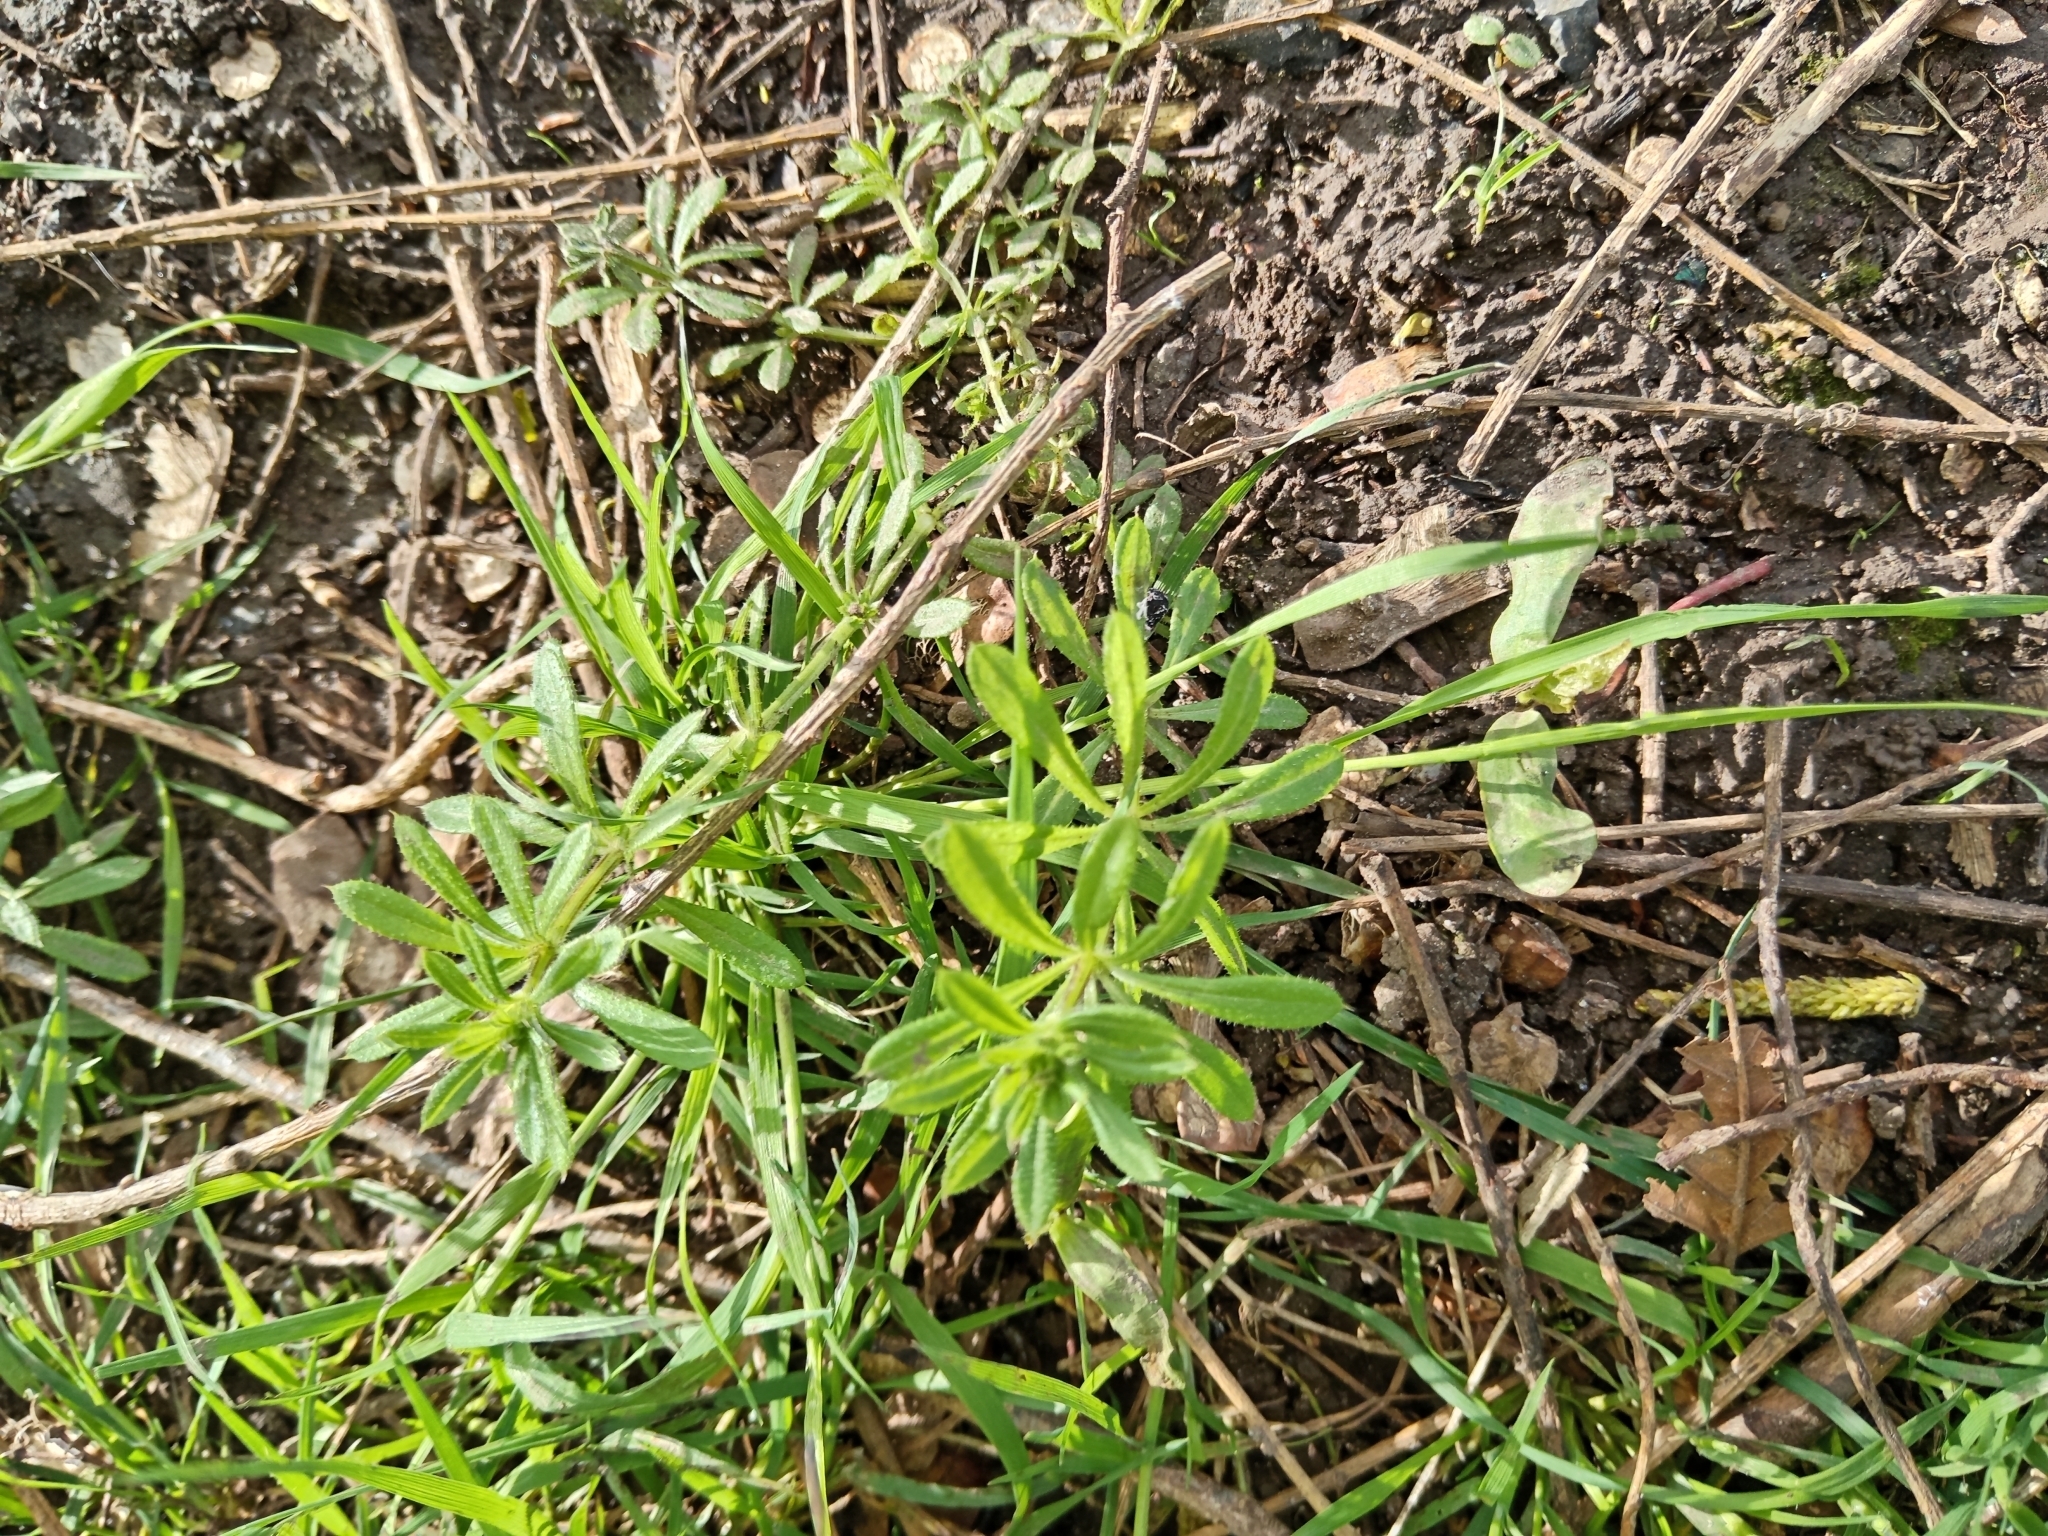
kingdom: Plantae
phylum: Tracheophyta
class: Magnoliopsida
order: Gentianales
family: Rubiaceae
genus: Galium
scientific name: Galium aparine
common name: Cleavers
